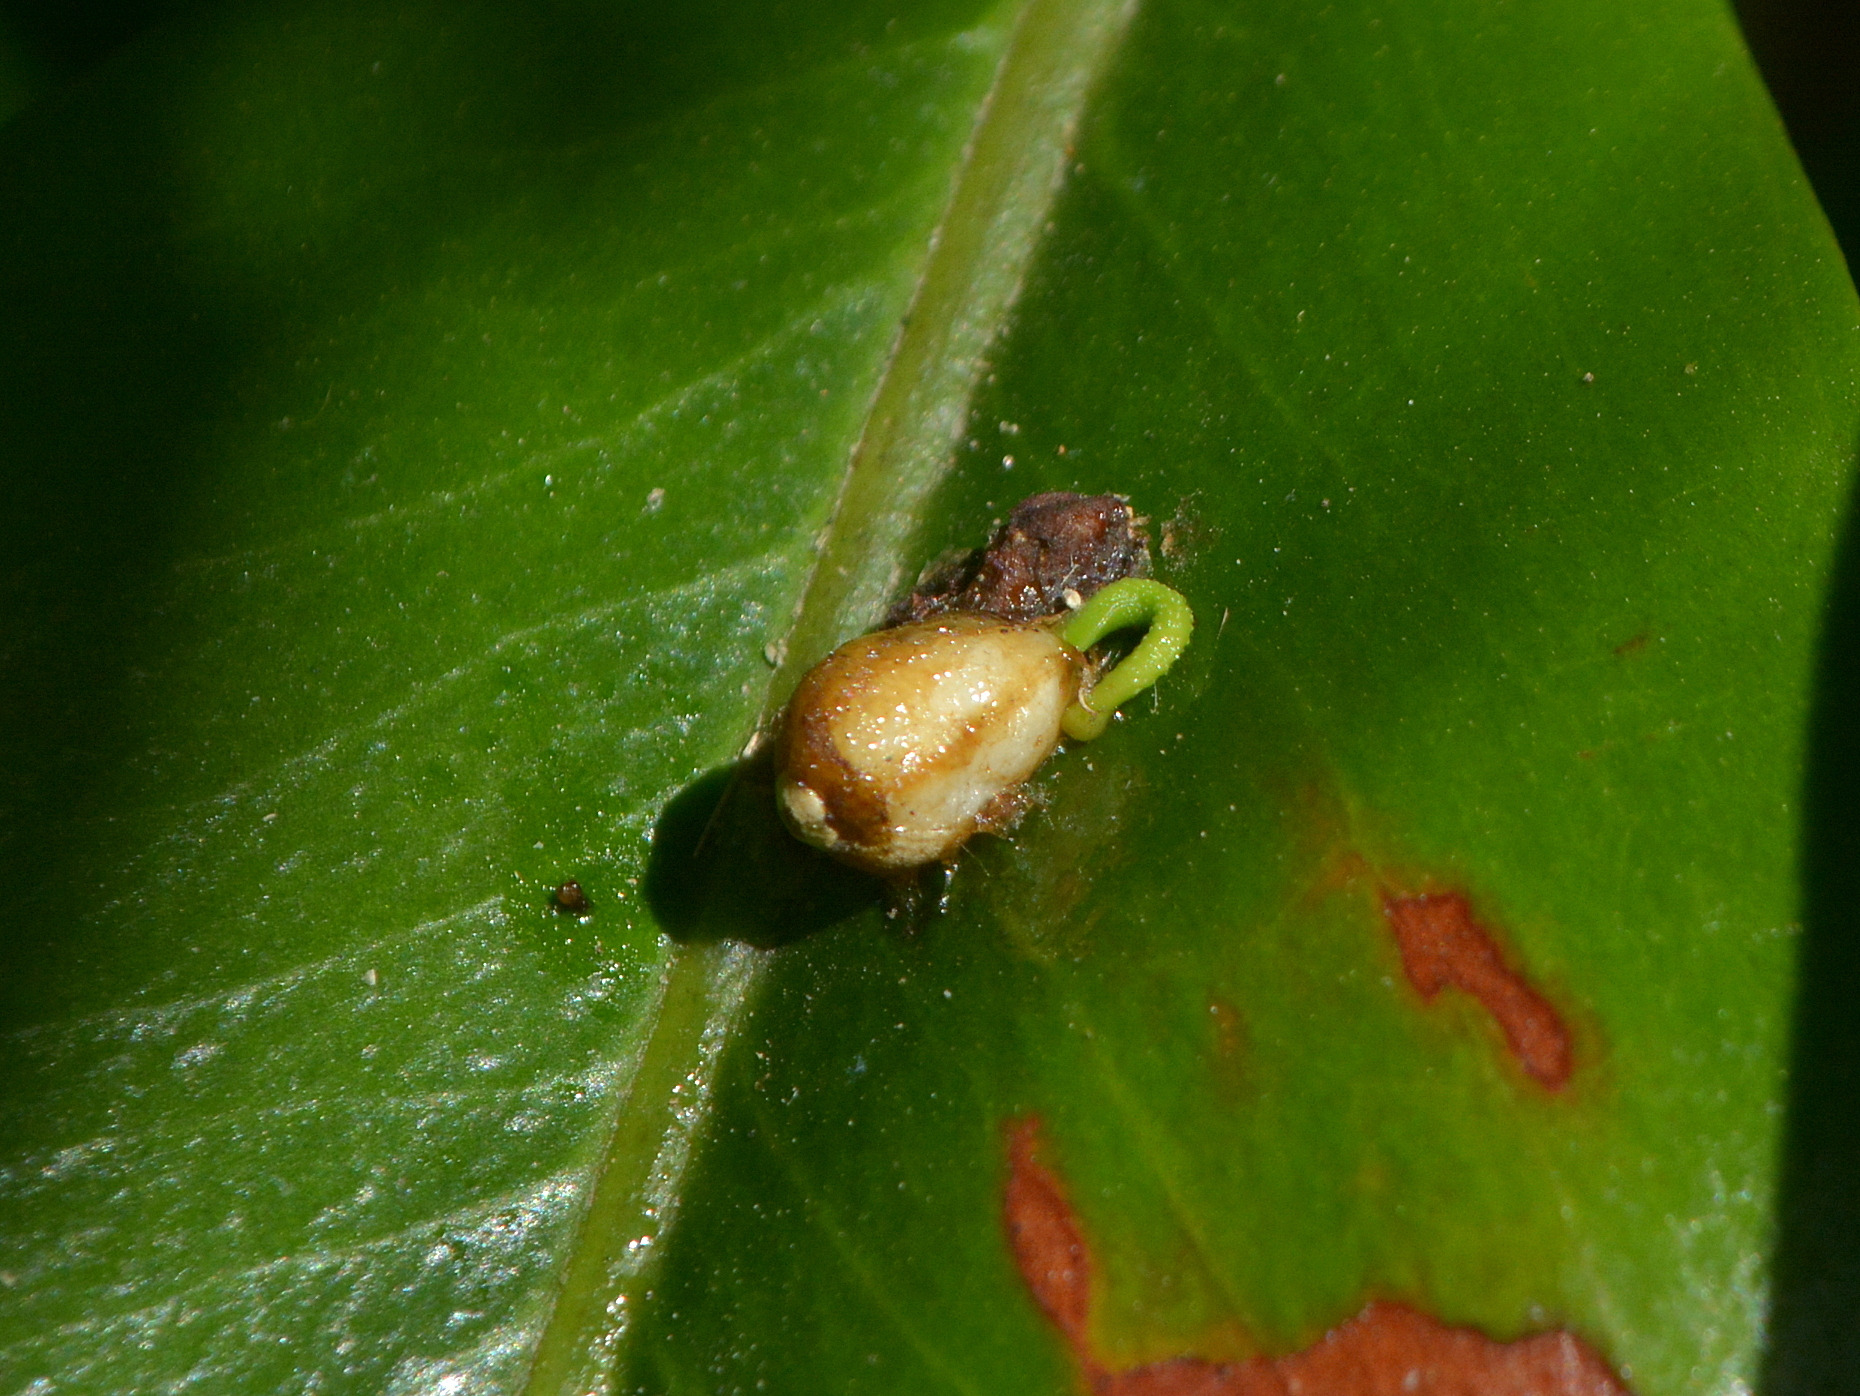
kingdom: Plantae
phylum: Tracheophyta
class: Magnoliopsida
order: Santalales
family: Loranthaceae
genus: Tripodanthus
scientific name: Tripodanthus acutifolius
